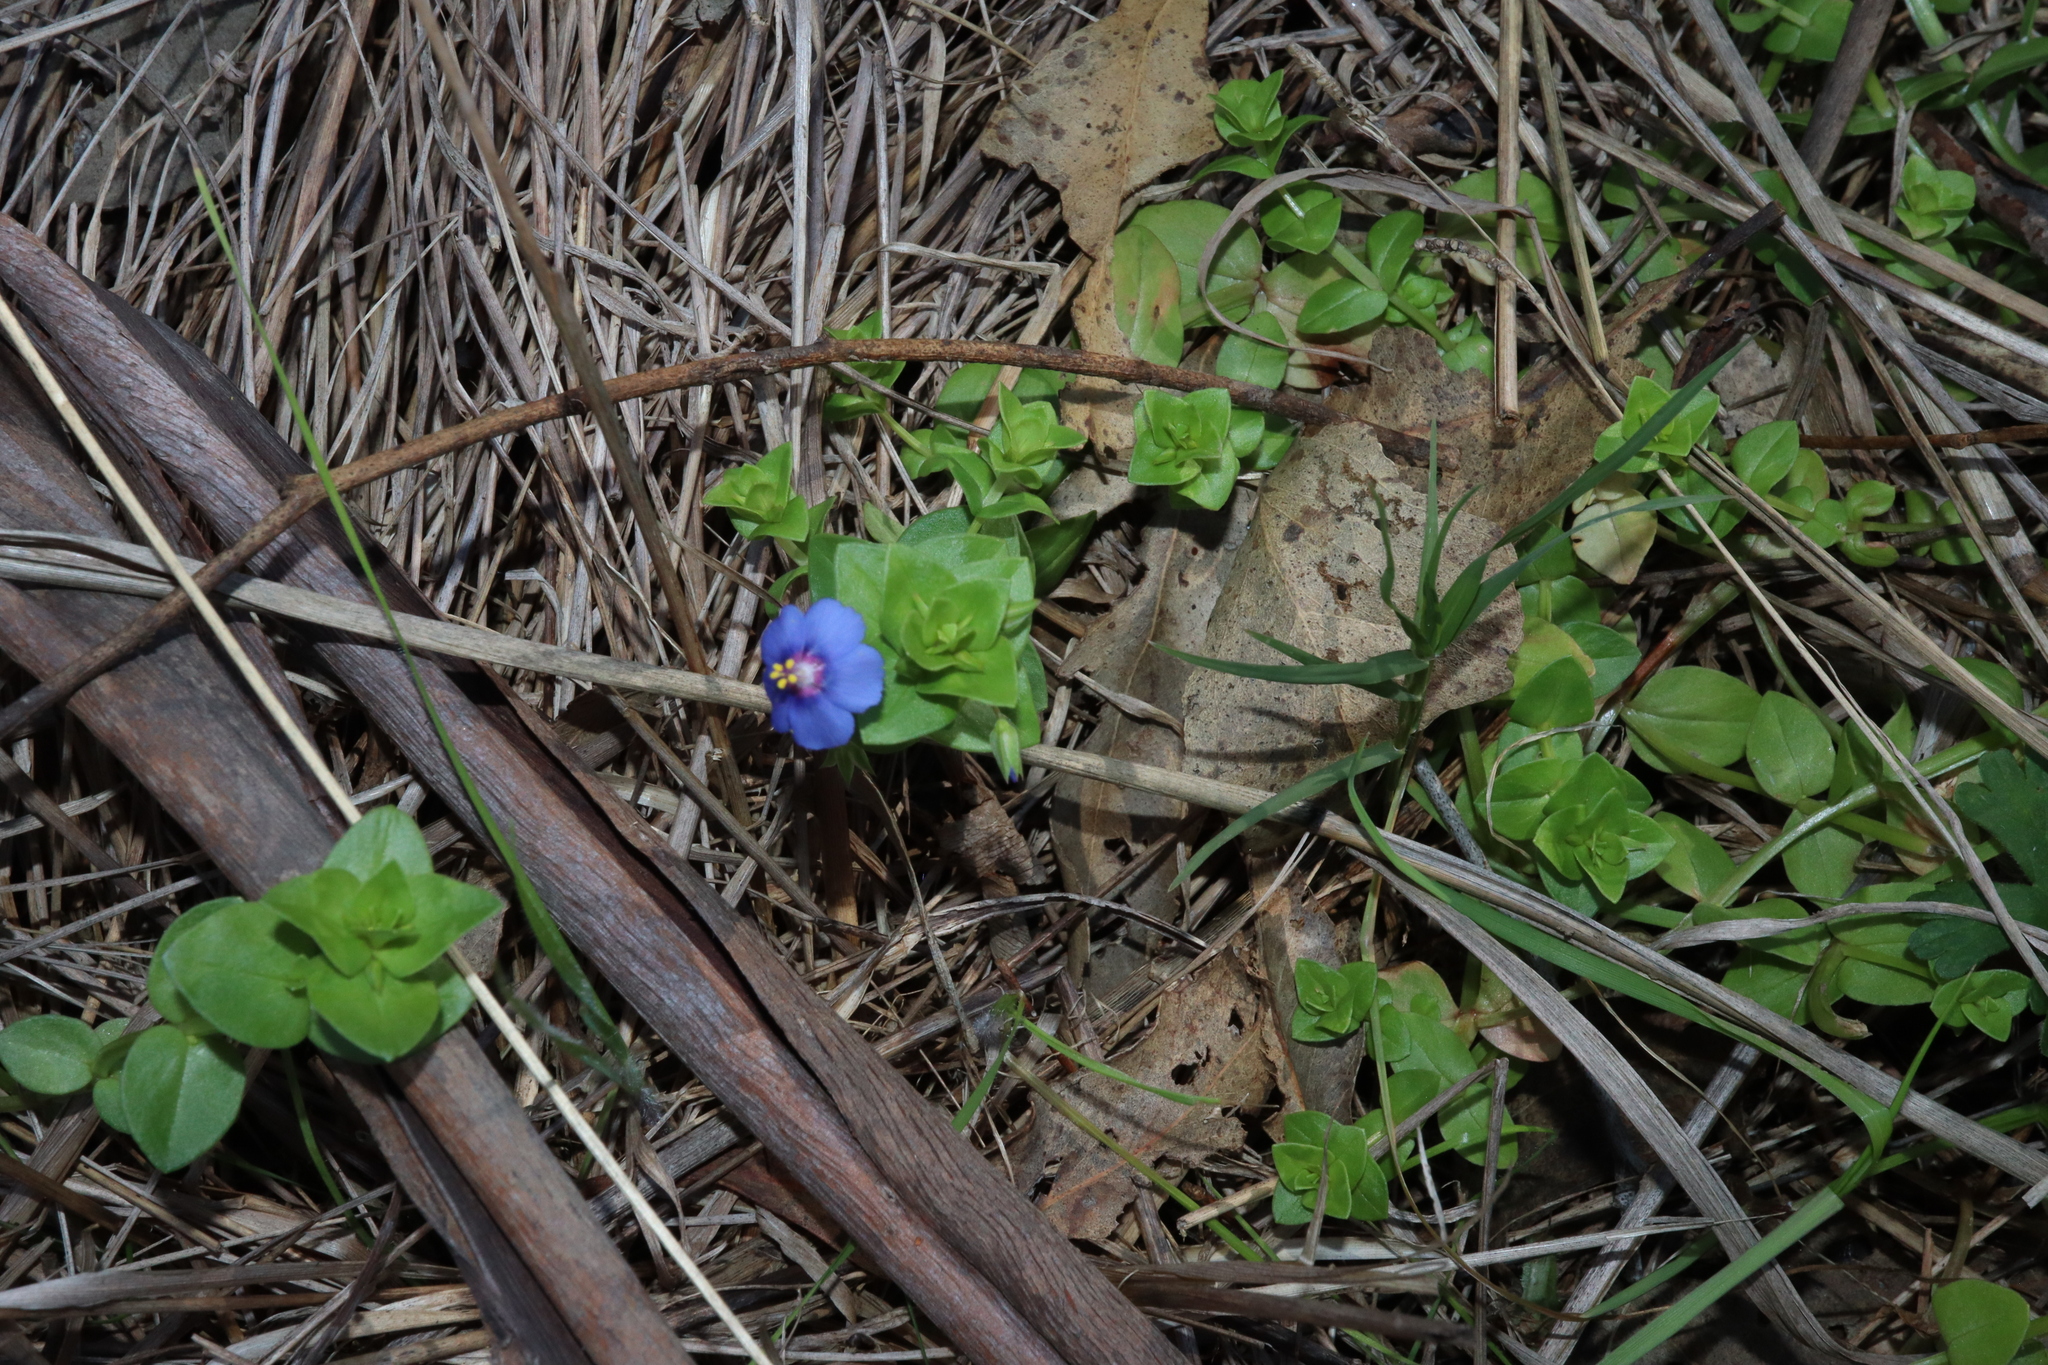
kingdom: Plantae
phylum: Tracheophyta
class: Magnoliopsida
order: Ericales
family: Primulaceae
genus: Lysimachia
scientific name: Lysimachia loeflingii
